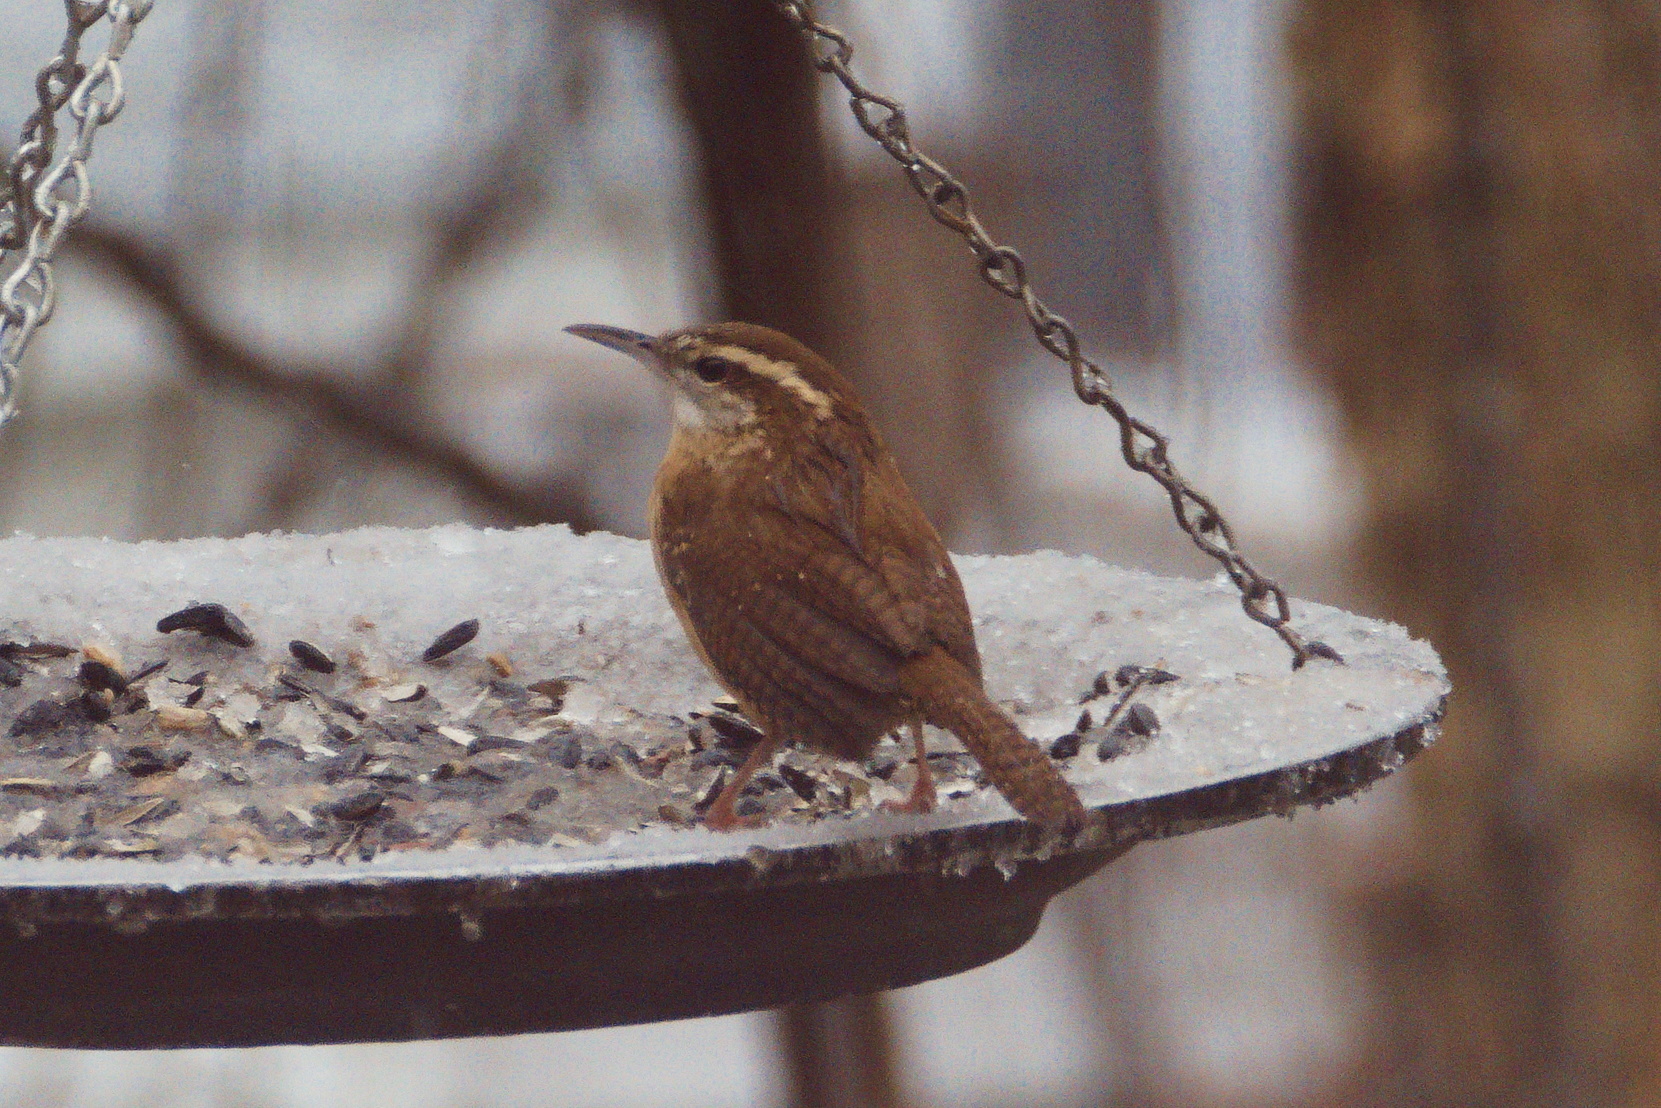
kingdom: Animalia
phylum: Chordata
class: Aves
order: Passeriformes
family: Troglodytidae
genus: Thryothorus
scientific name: Thryothorus ludovicianus
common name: Carolina wren
